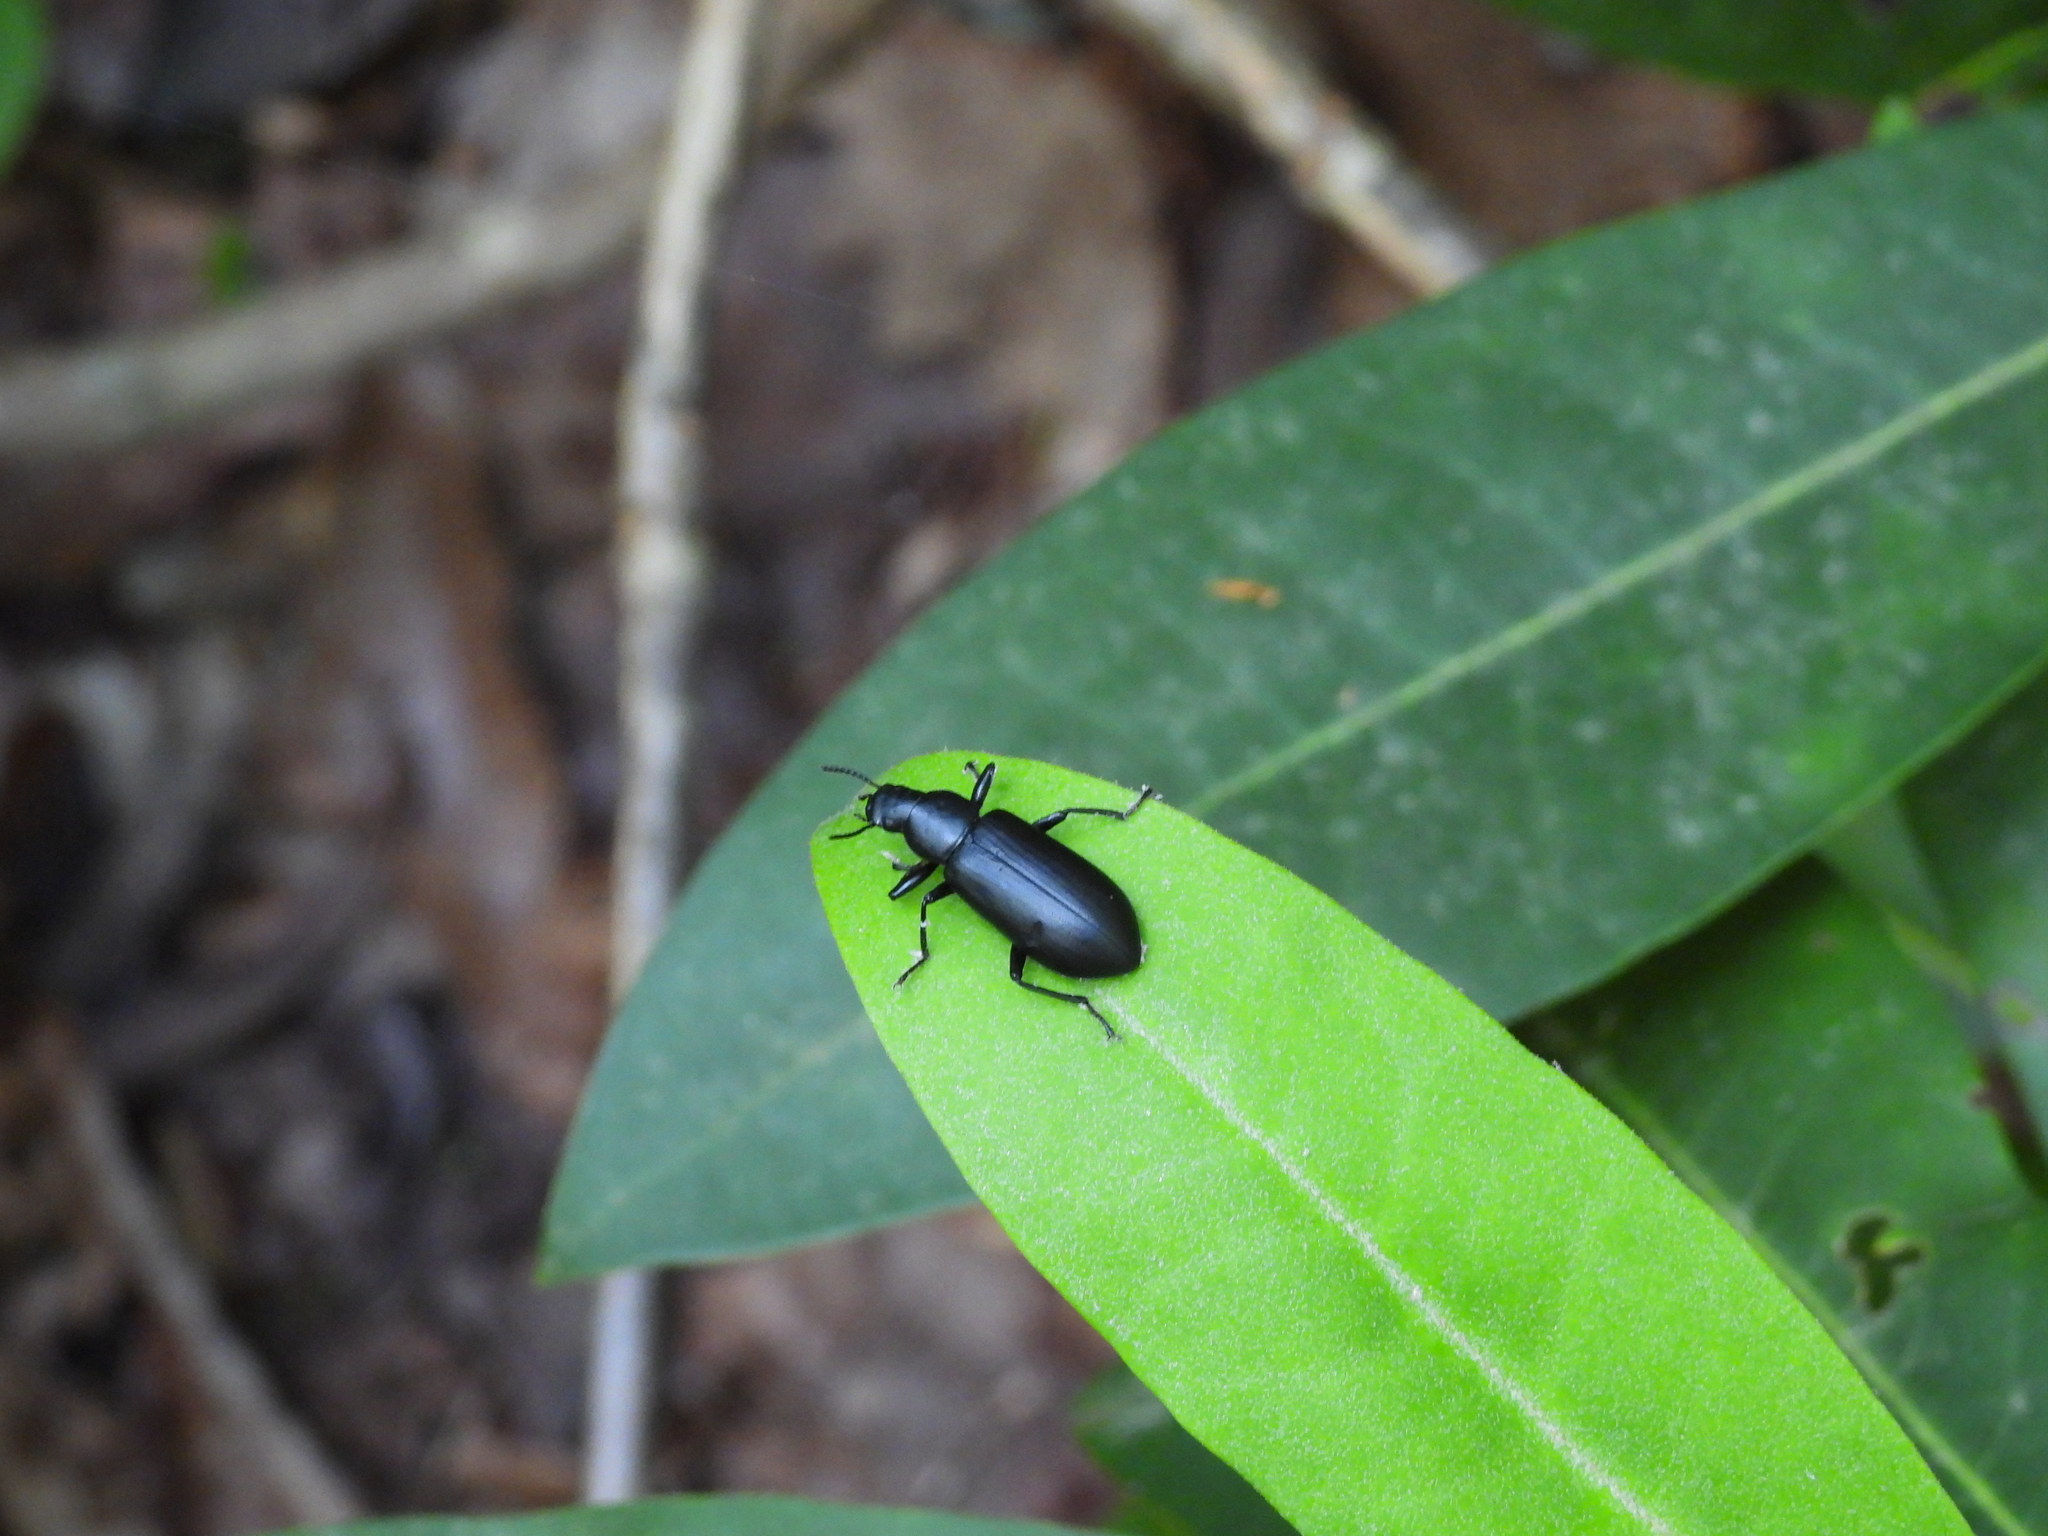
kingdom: Animalia
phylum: Arthropoda
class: Insecta
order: Coleoptera
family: Tenebrionidae
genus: Alobates
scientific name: Alobates pensylvanicus
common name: False mealworm beetle
